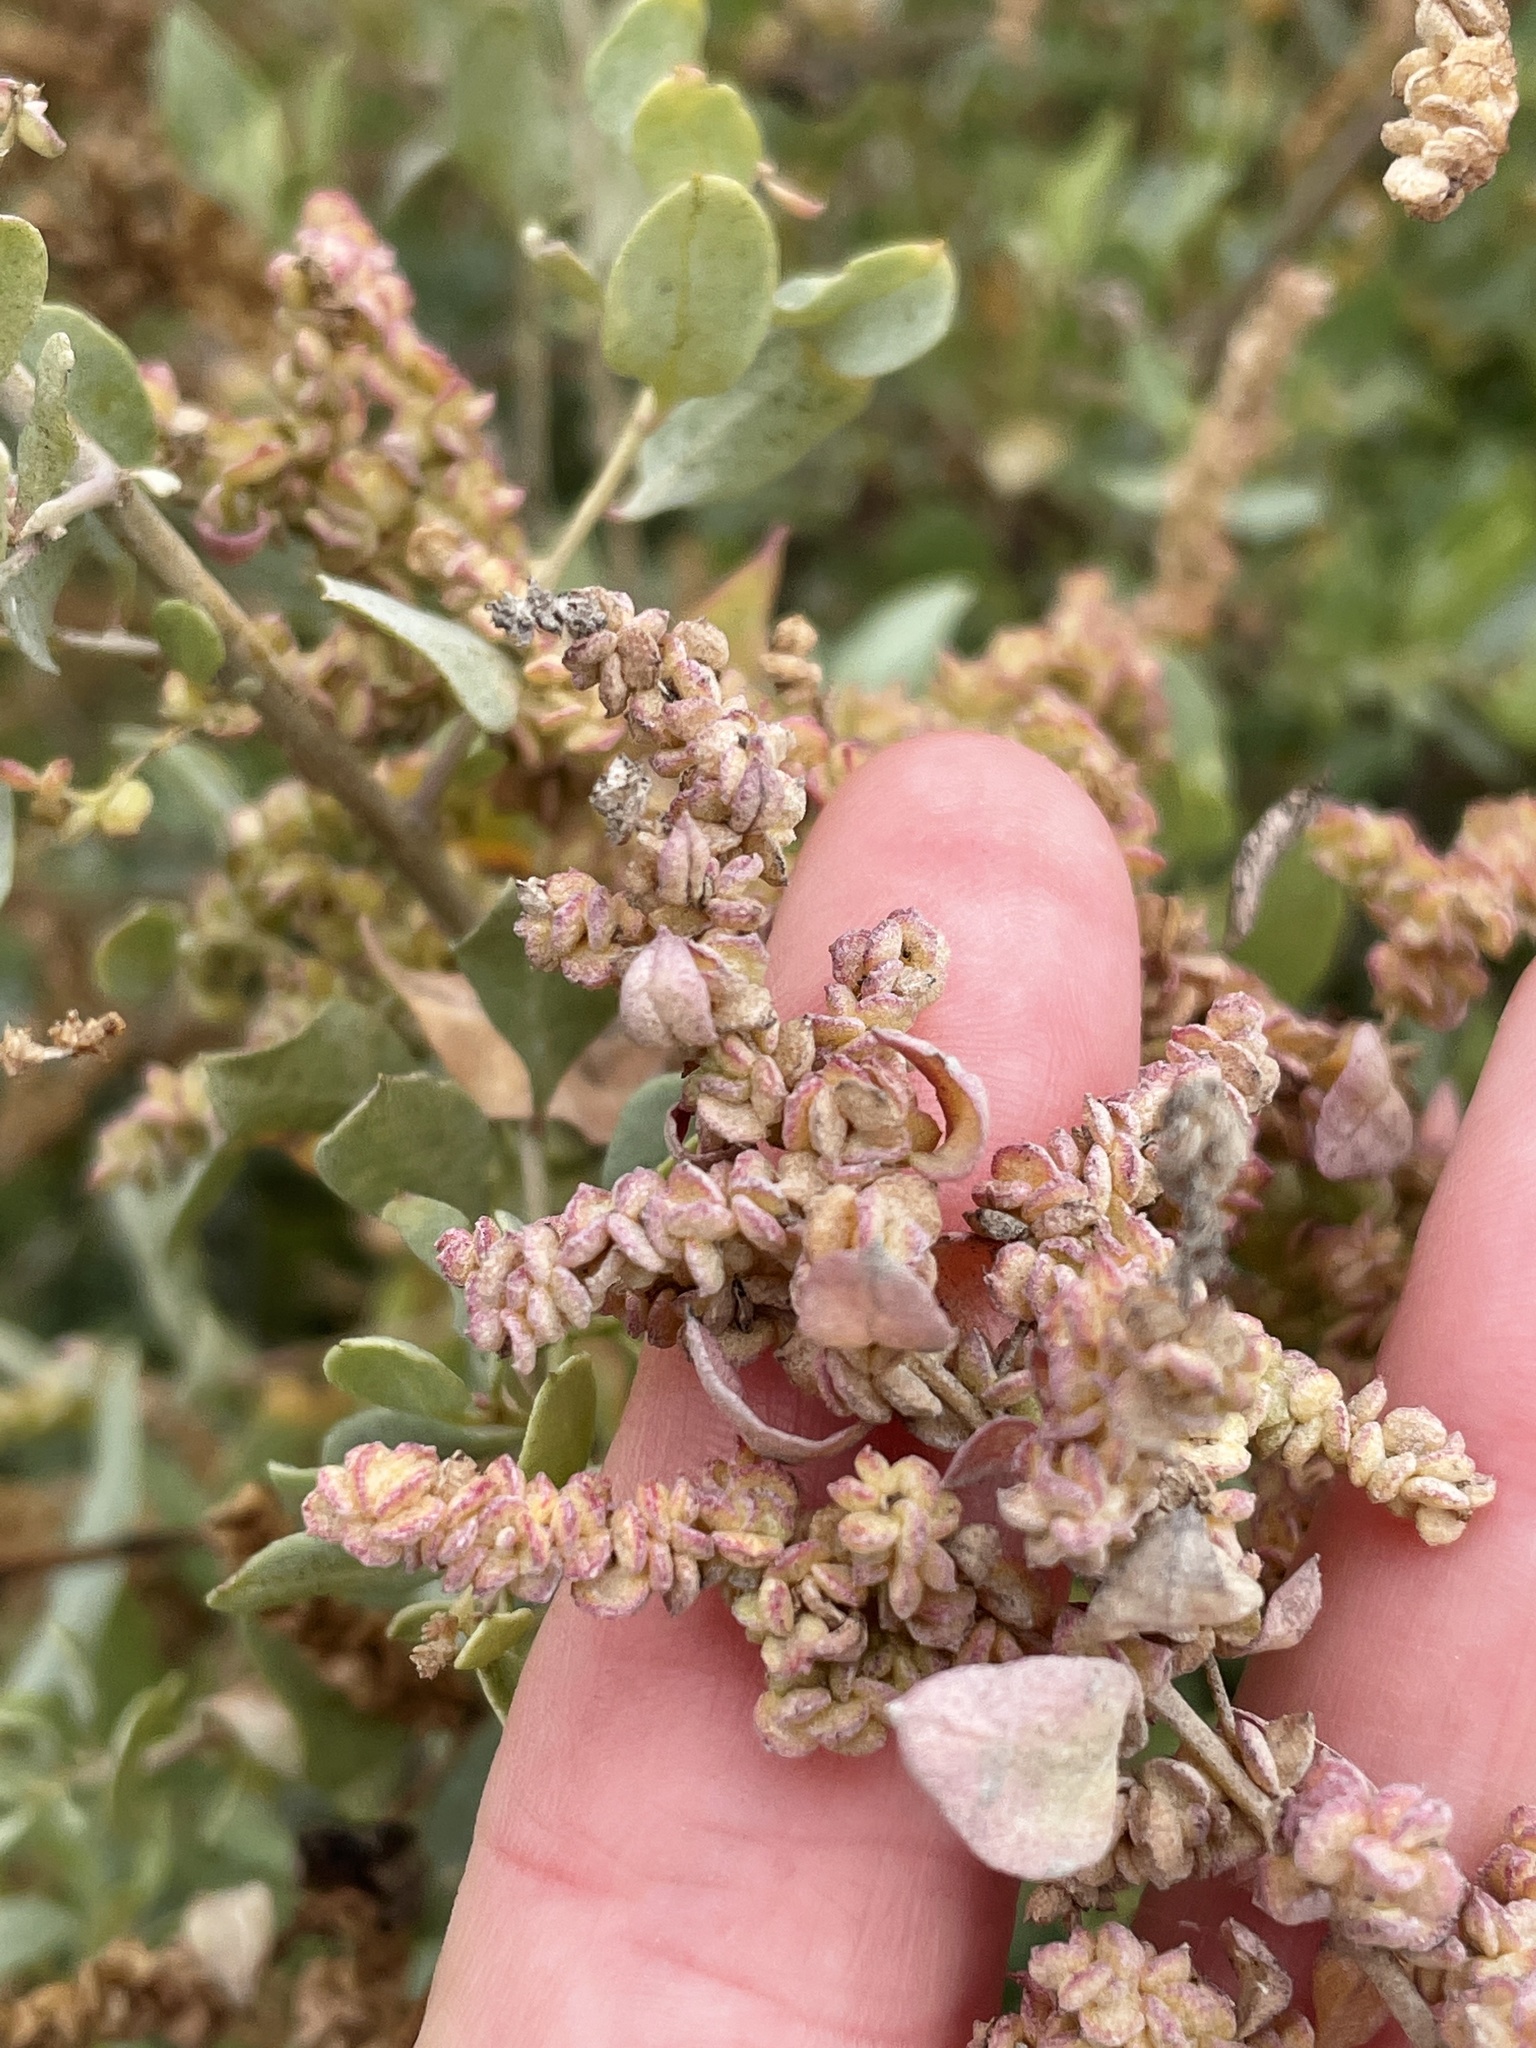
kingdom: Plantae
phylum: Tracheophyta
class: Magnoliopsida
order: Caryophyllales
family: Amaranthaceae
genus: Atriplex
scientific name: Atriplex lentiformis
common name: Big saltbush
